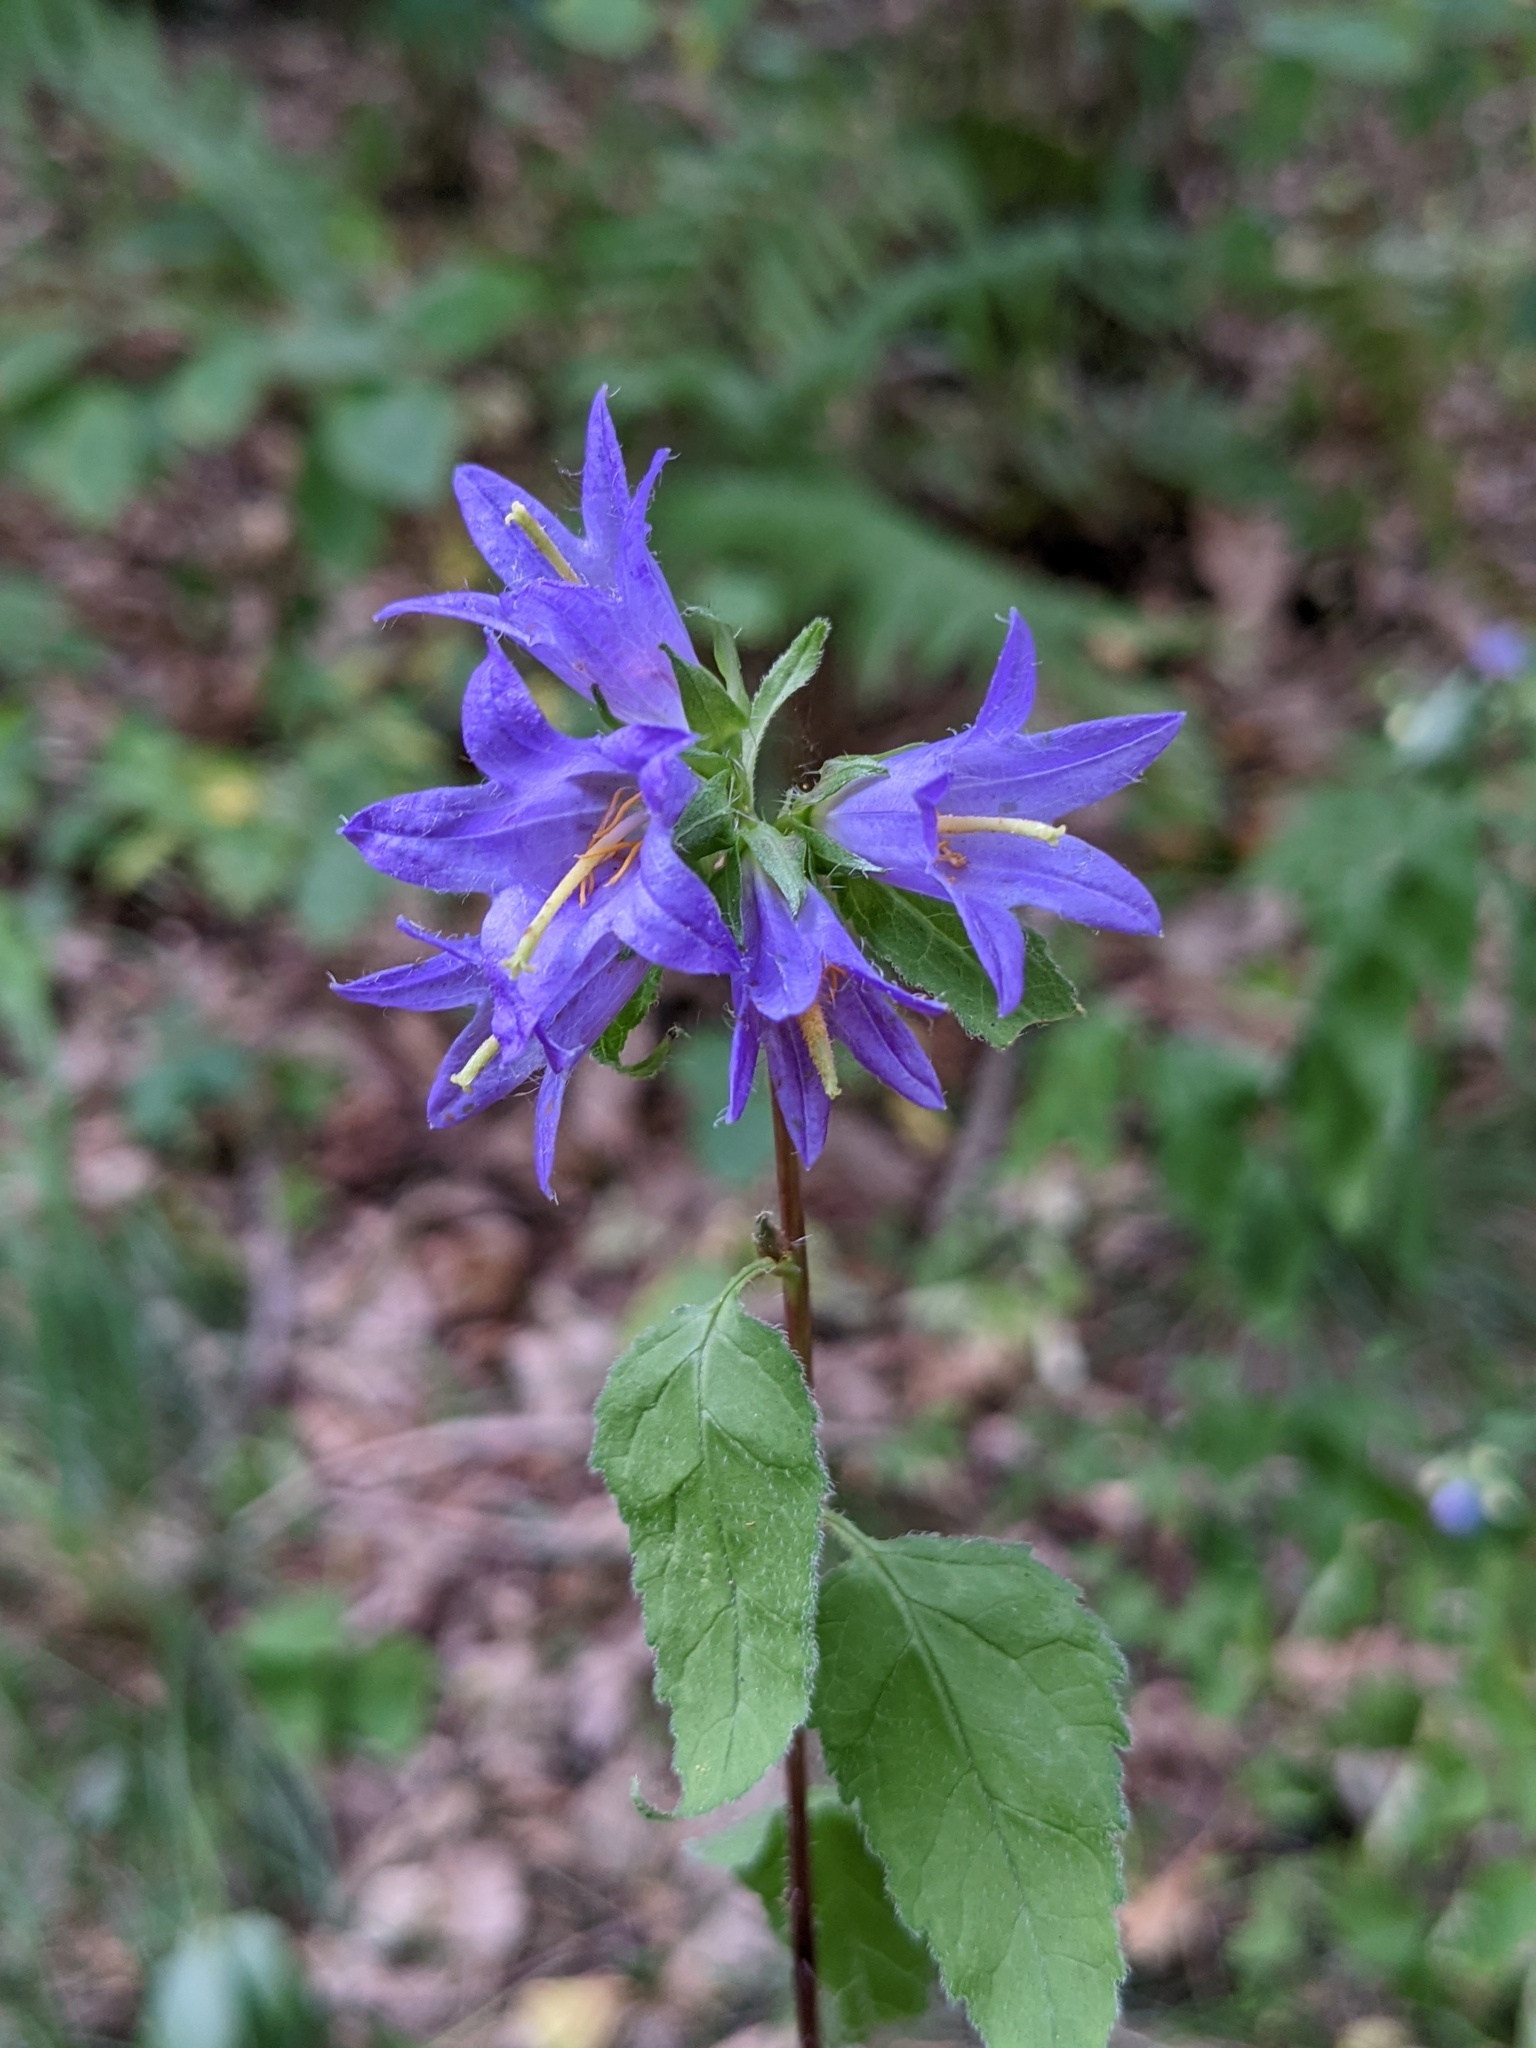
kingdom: Plantae
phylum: Tracheophyta
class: Magnoliopsida
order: Asterales
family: Campanulaceae
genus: Campanula
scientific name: Campanula trachelium
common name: Nettle-leaved bellflower
